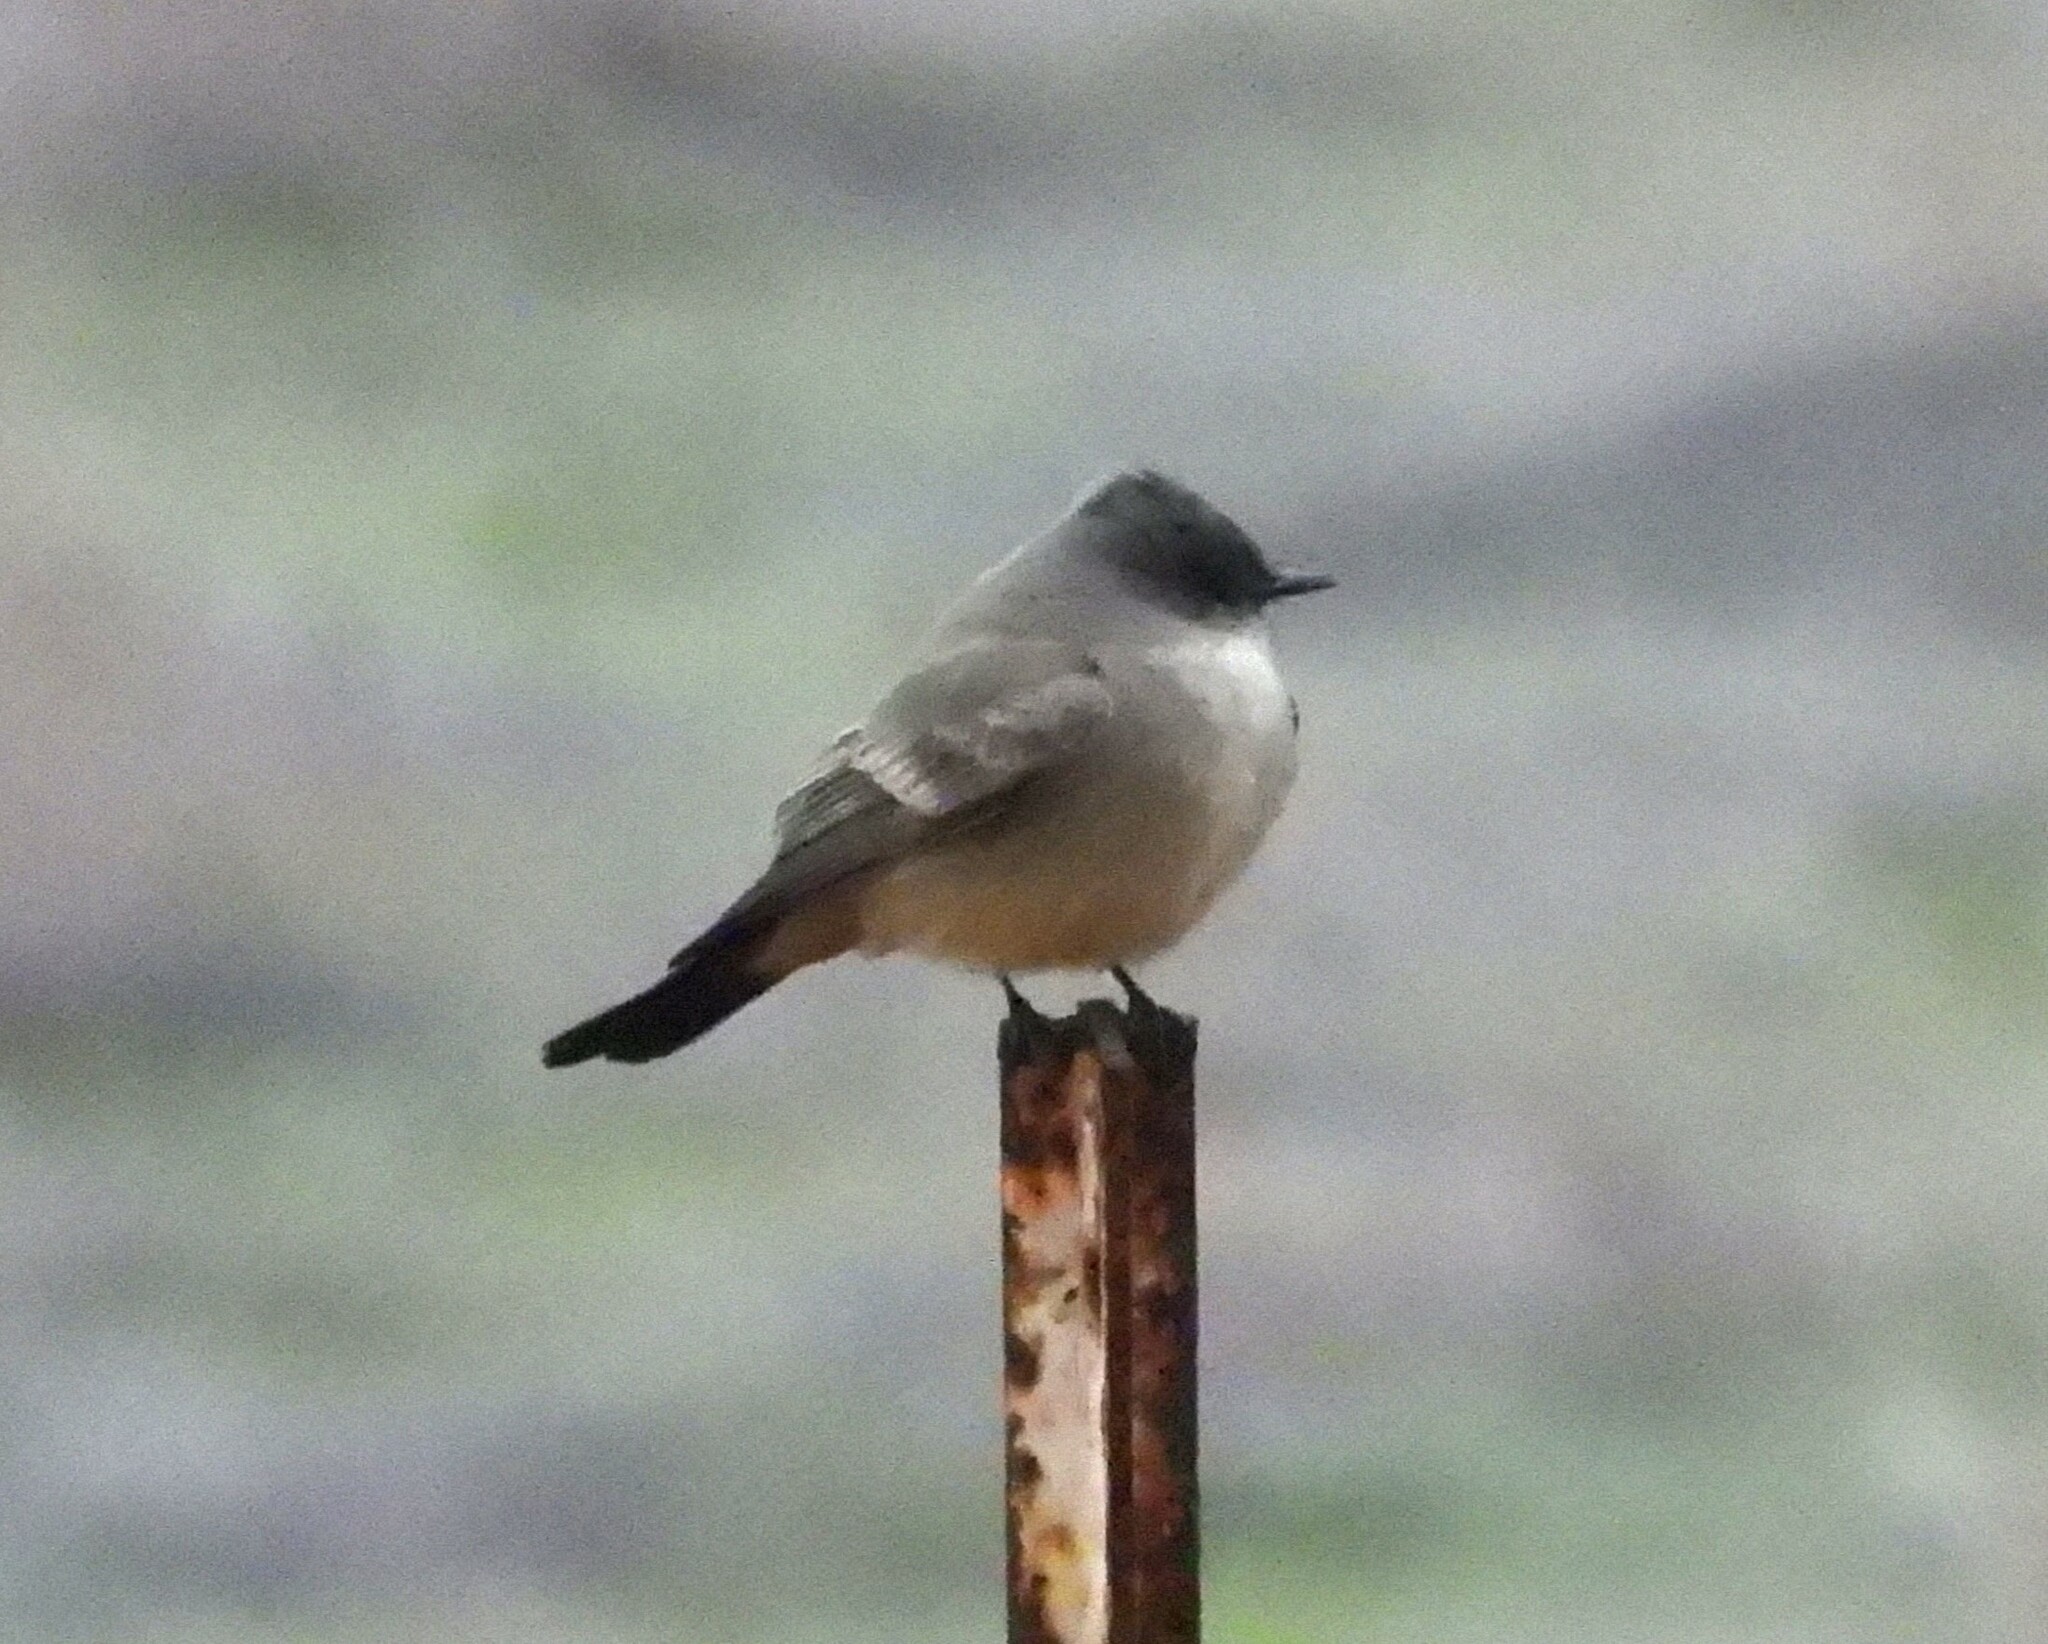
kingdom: Animalia
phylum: Chordata
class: Aves
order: Passeriformes
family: Tyrannidae
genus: Sayornis
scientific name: Sayornis saya
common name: Say's phoebe
